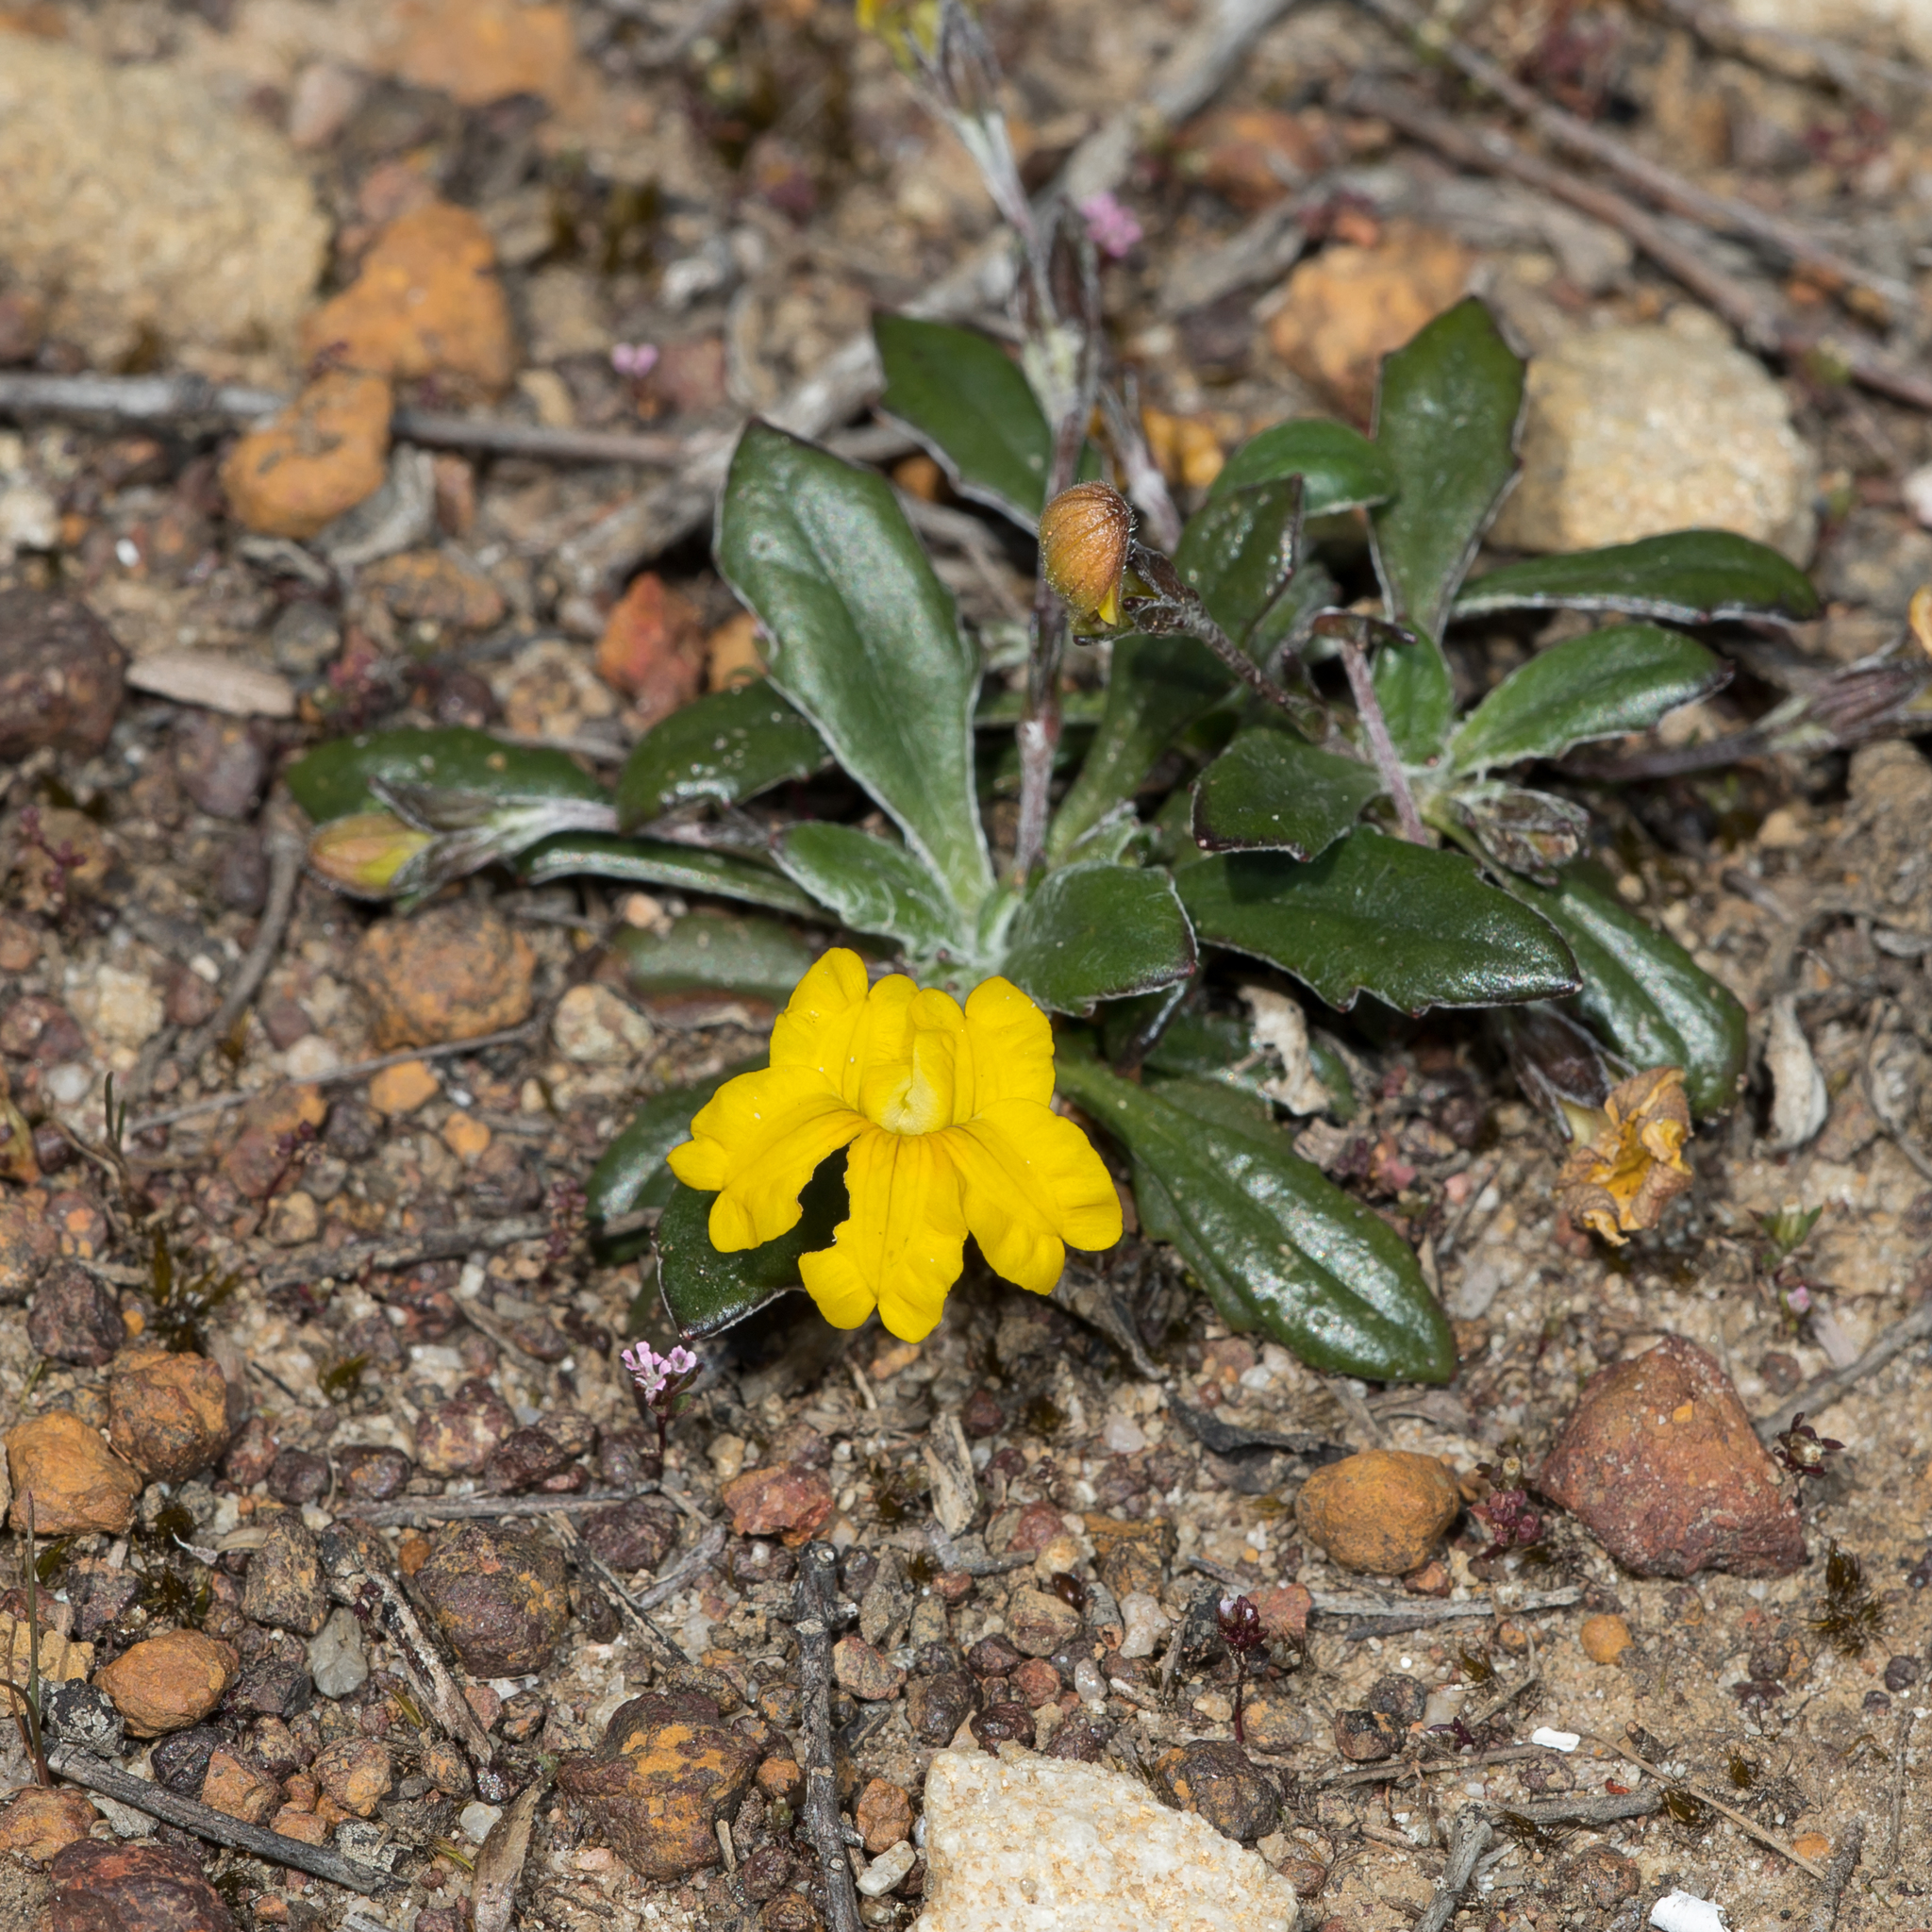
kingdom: Plantae
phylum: Tracheophyta
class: Magnoliopsida
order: Asterales
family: Goodeniaceae
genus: Goodenia
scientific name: Goodenia blackiana
